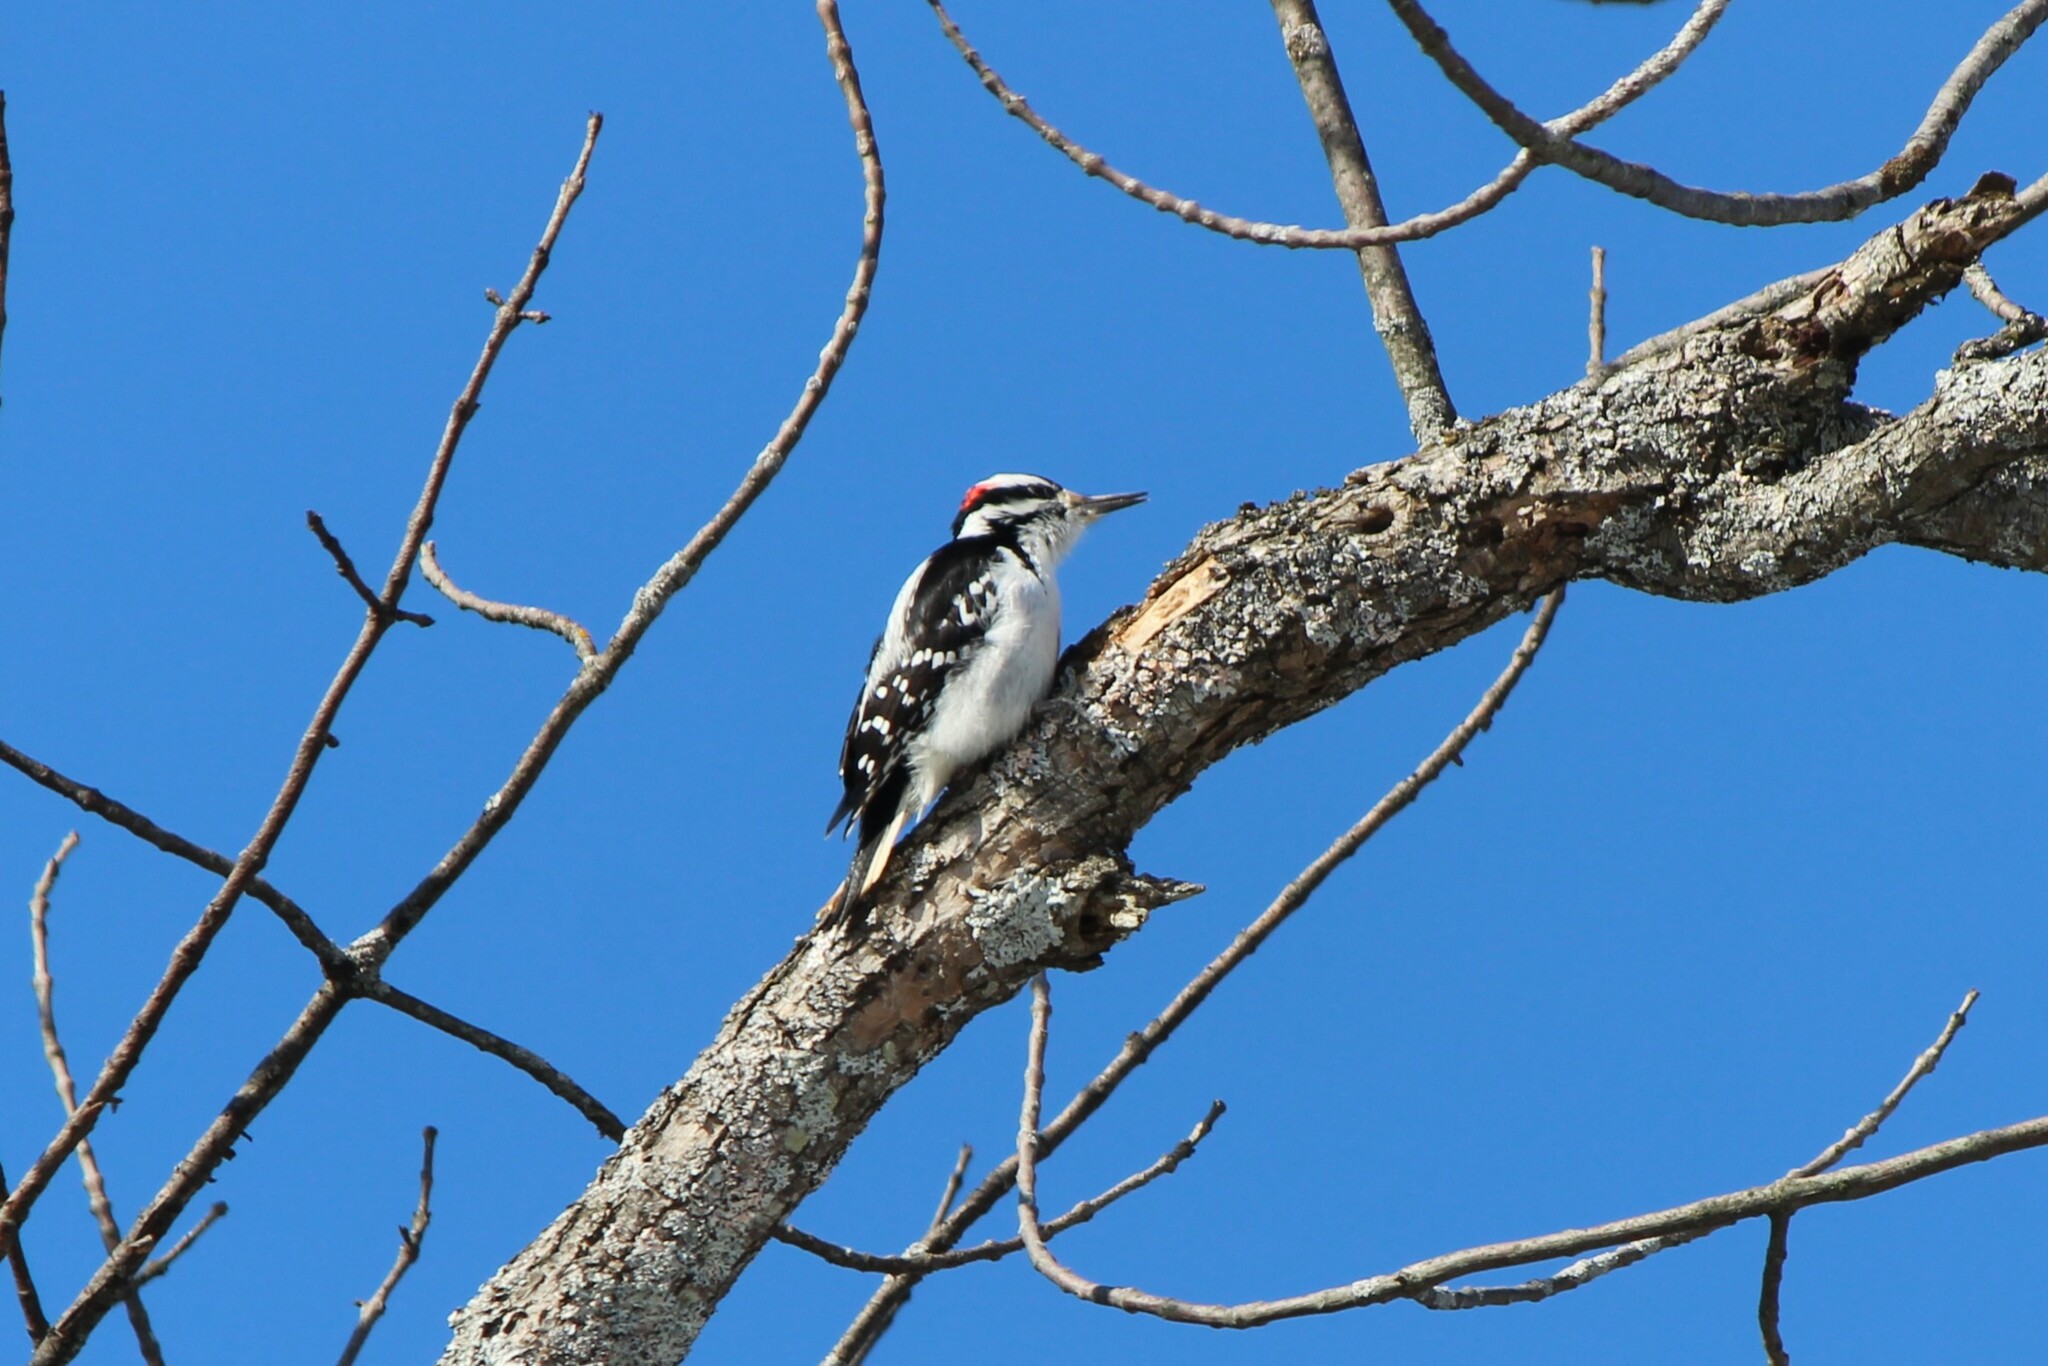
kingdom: Animalia
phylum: Chordata
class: Aves
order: Piciformes
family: Picidae
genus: Leuconotopicus
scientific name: Leuconotopicus villosus
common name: Hairy woodpecker
